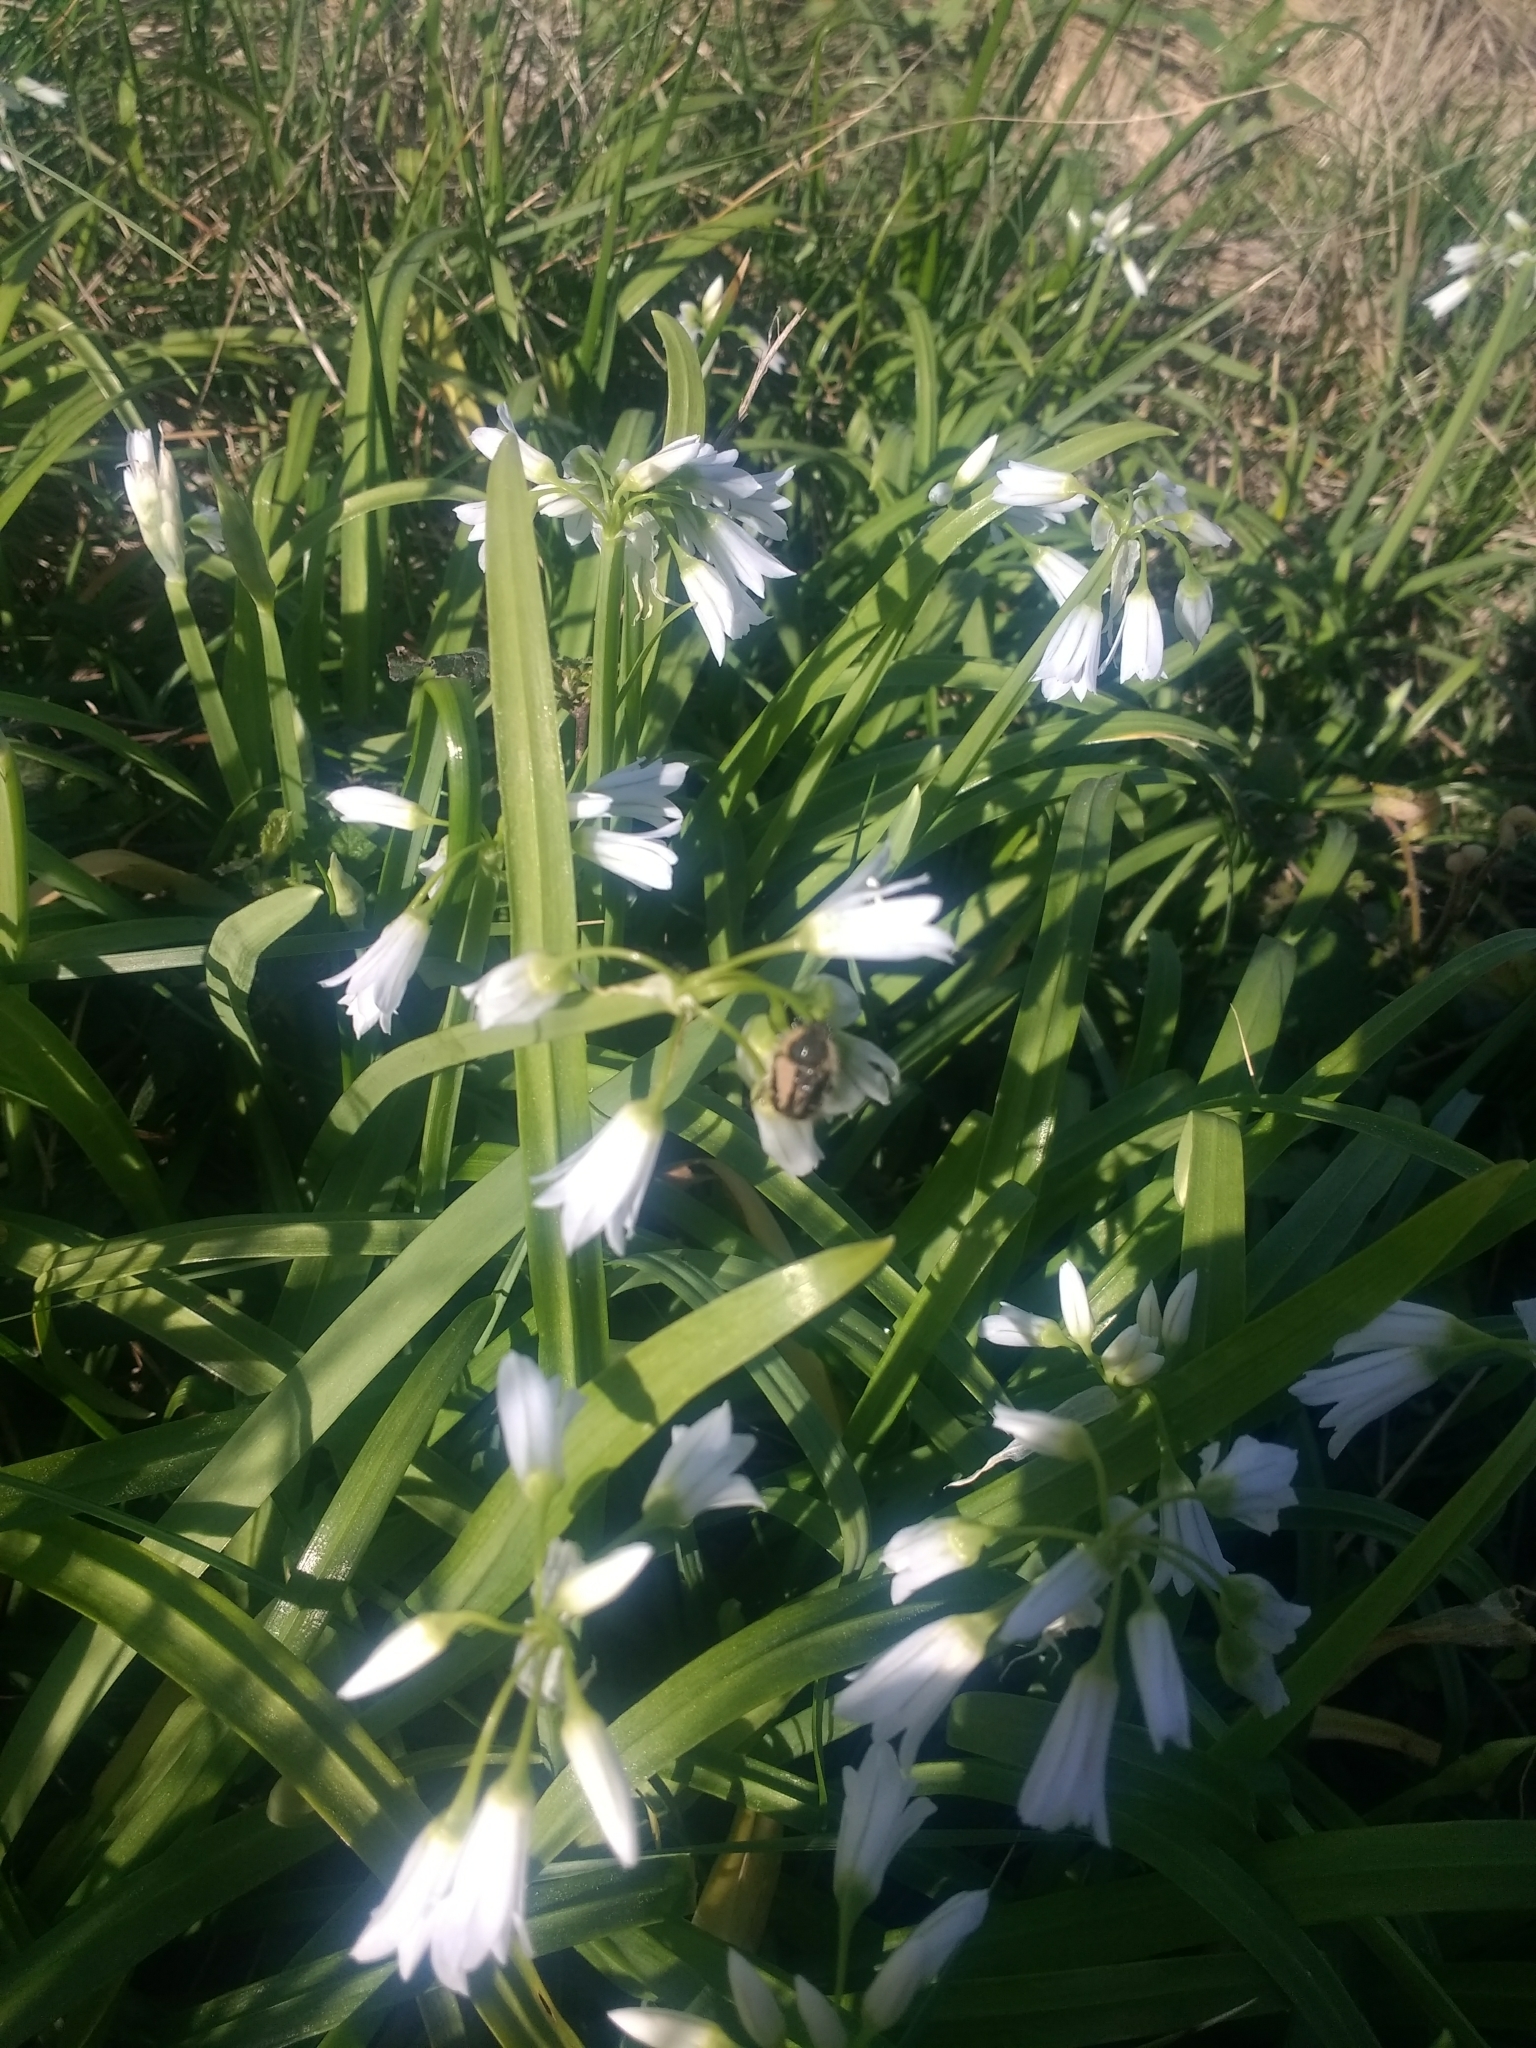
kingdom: Plantae
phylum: Tracheophyta
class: Liliopsida
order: Asparagales
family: Amaryllidaceae
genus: Allium
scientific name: Allium triquetrum
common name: Three-cornered garlic
